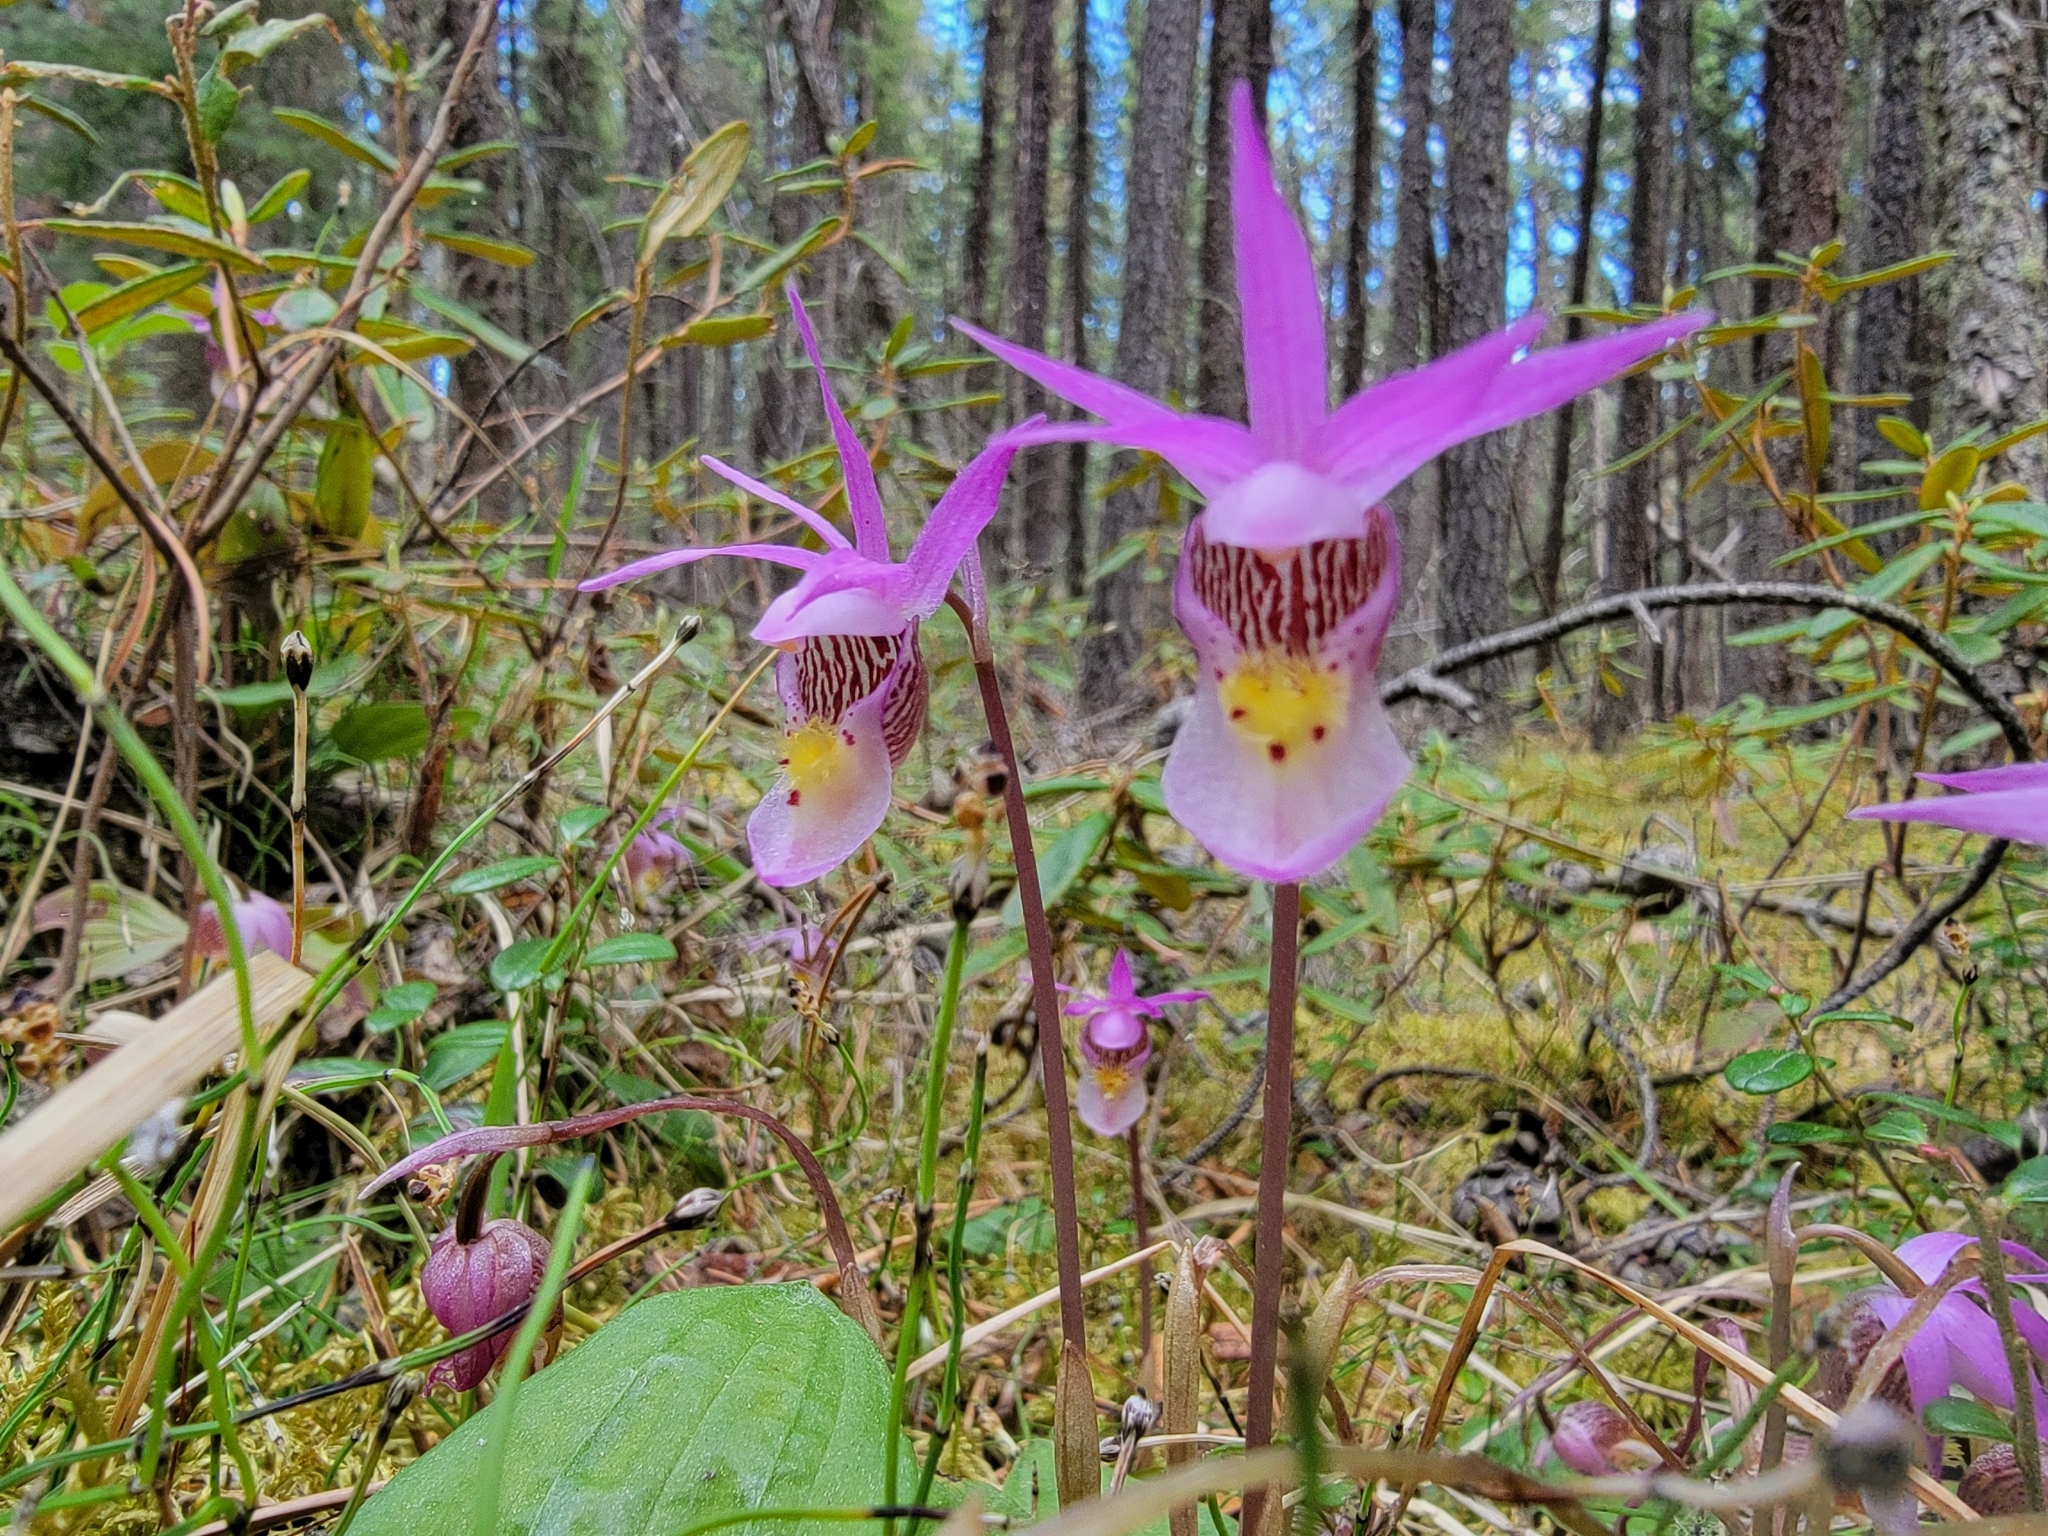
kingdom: Plantae
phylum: Tracheophyta
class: Liliopsida
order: Asparagales
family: Orchidaceae
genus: Calypso
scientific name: Calypso bulbosa
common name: Calypso
